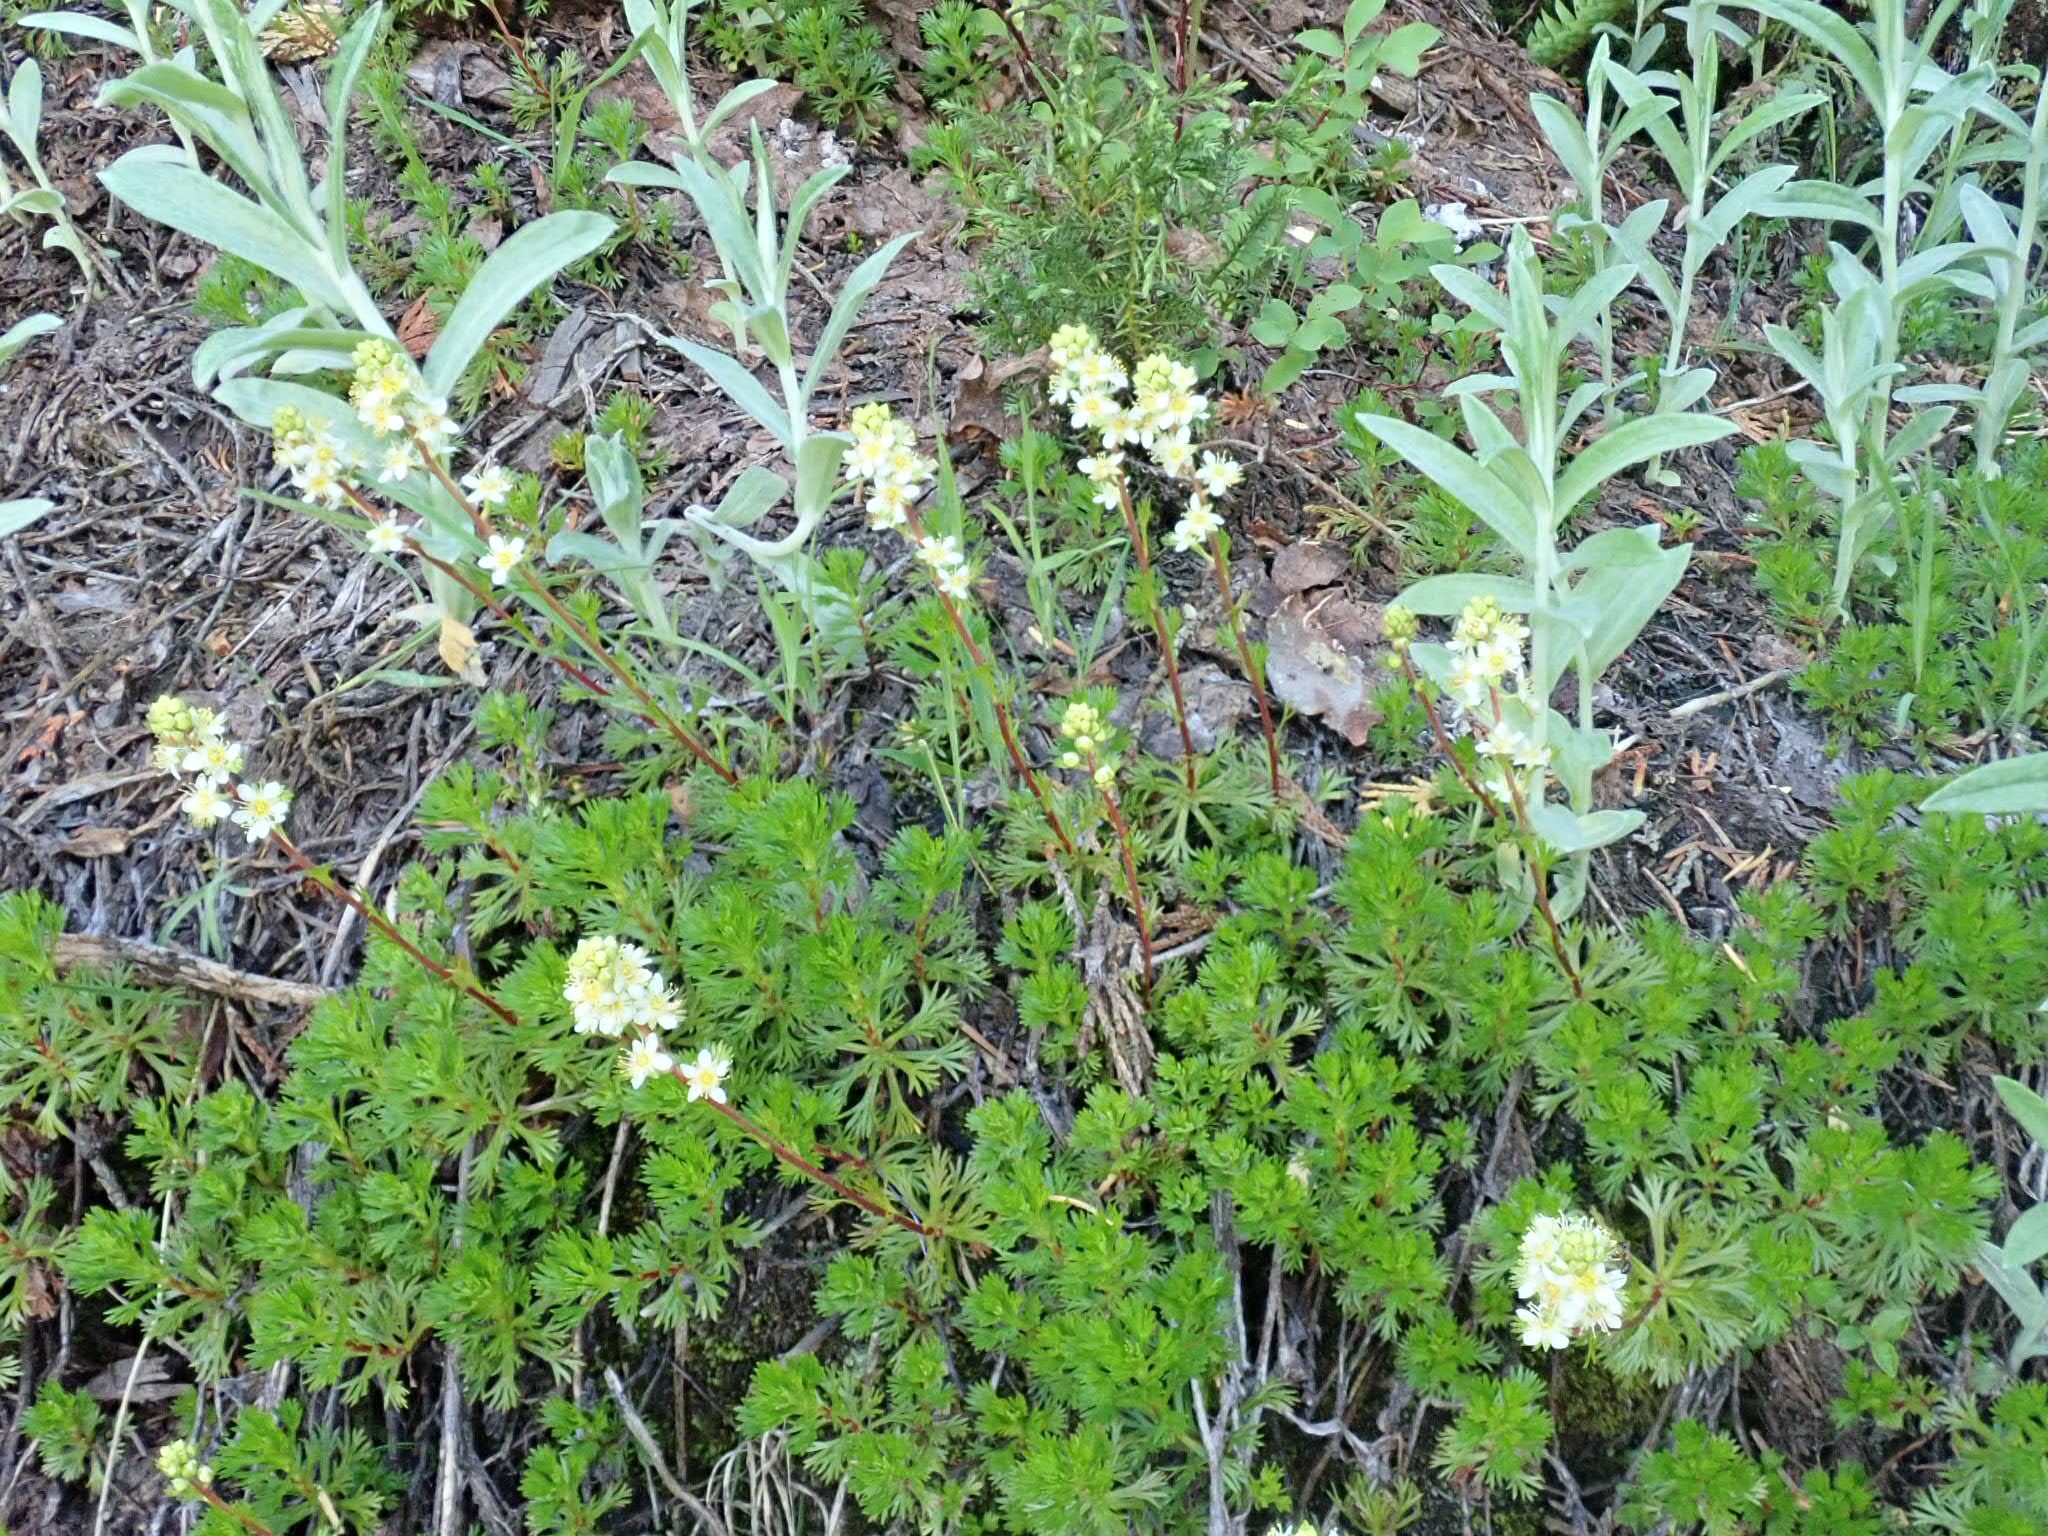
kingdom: Plantae
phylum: Tracheophyta
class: Magnoliopsida
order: Rosales
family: Rosaceae
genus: Luetkea
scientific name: Luetkea pectinata
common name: Partridgefoot
